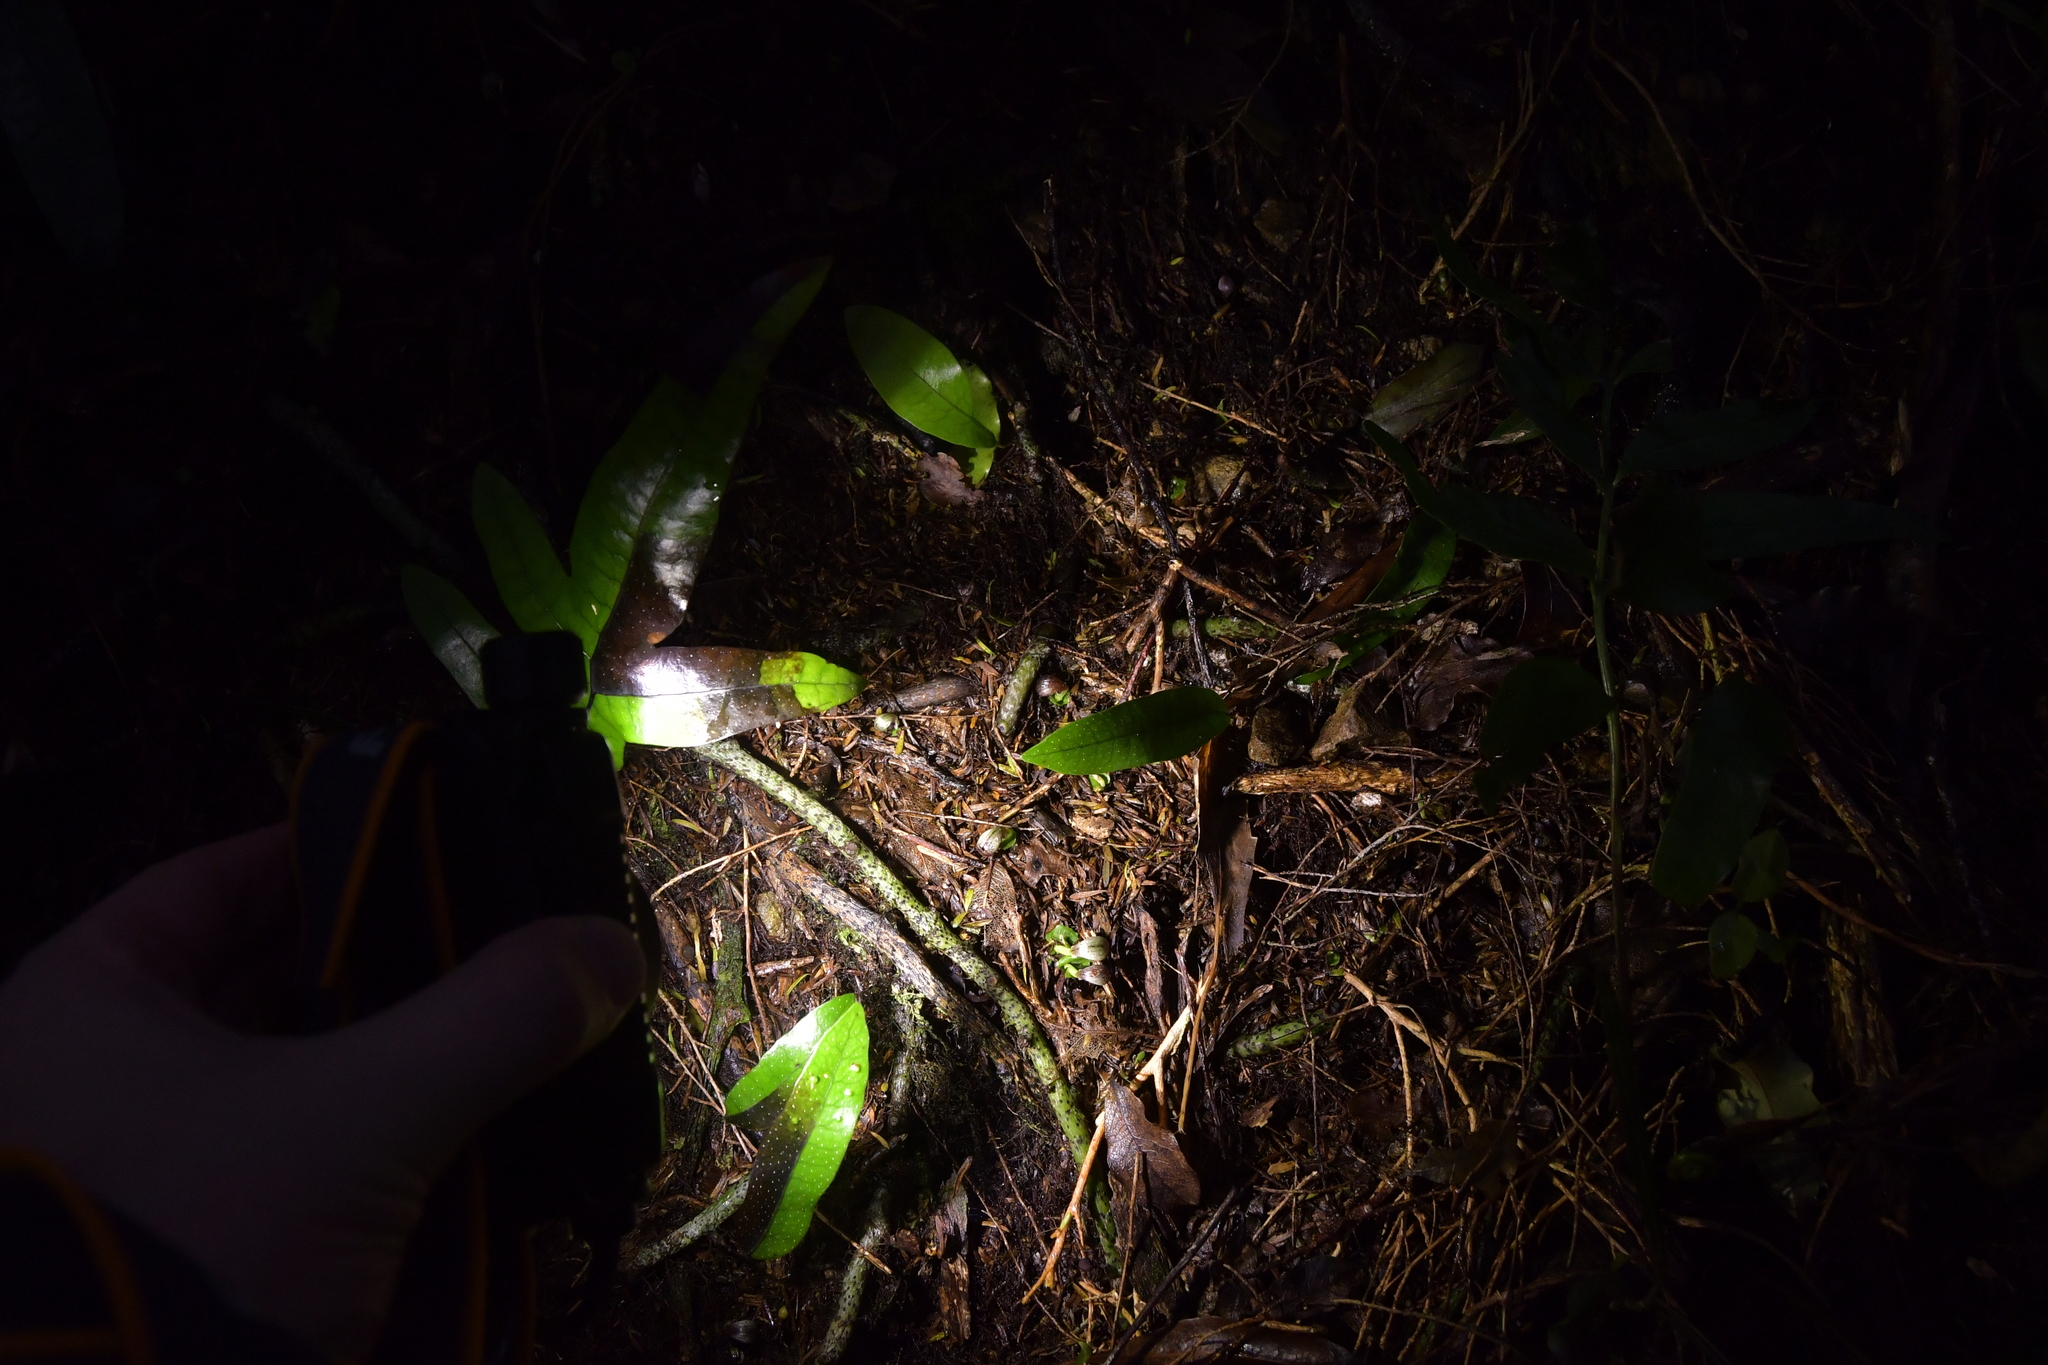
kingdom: Plantae
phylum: Tracheophyta
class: Liliopsida
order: Asparagales
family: Orchidaceae
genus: Corybas
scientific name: Corybas cheesemanii
